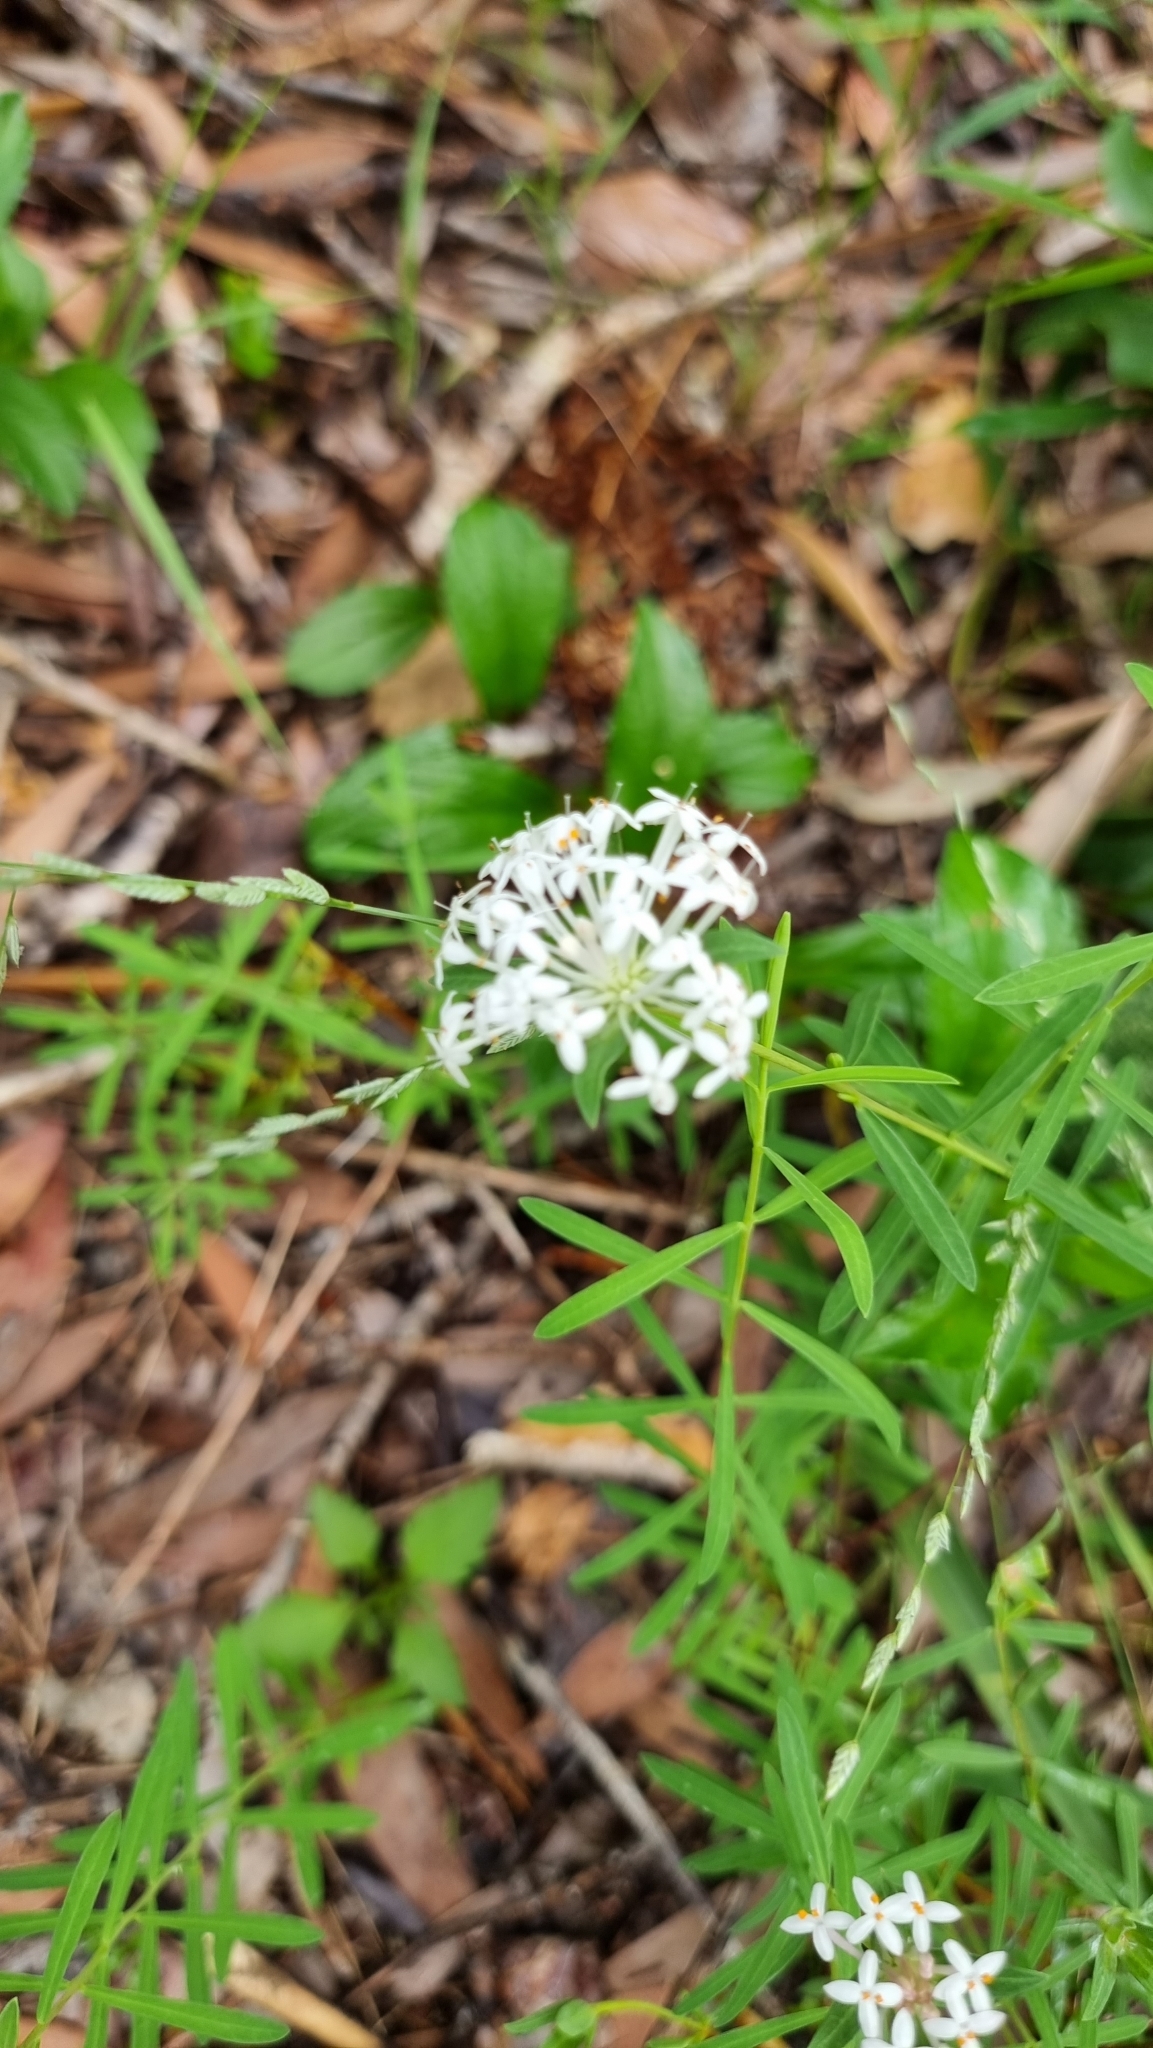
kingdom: Plantae
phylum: Tracheophyta
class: Magnoliopsida
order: Malvales
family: Thymelaeaceae
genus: Pimelea
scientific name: Pimelea linifolia
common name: Queen-of-the-bush
